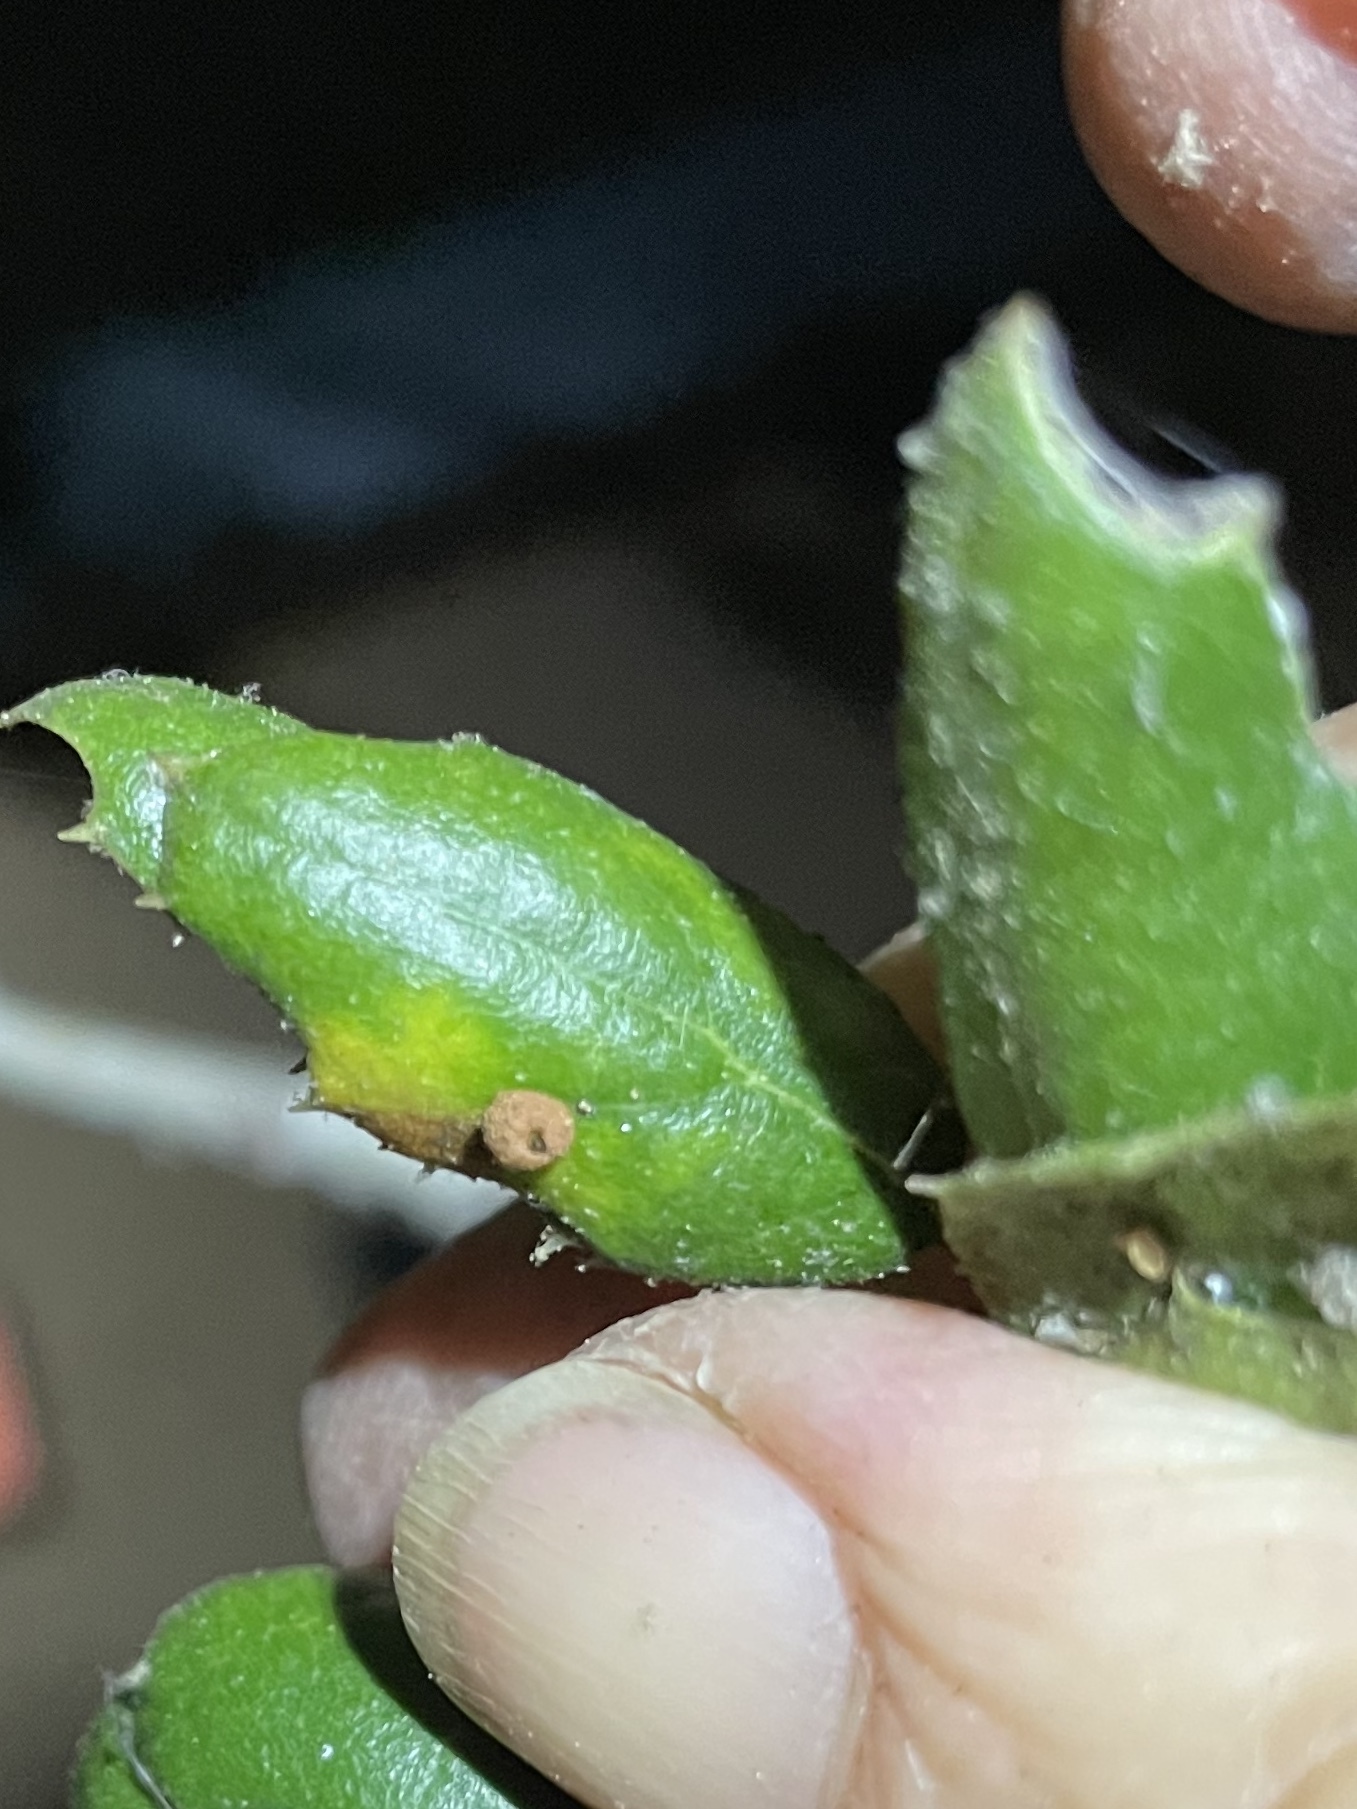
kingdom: Animalia
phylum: Arthropoda
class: Insecta
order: Hymenoptera
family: Cynipidae
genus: Dryocosmus
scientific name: Dryocosmus
